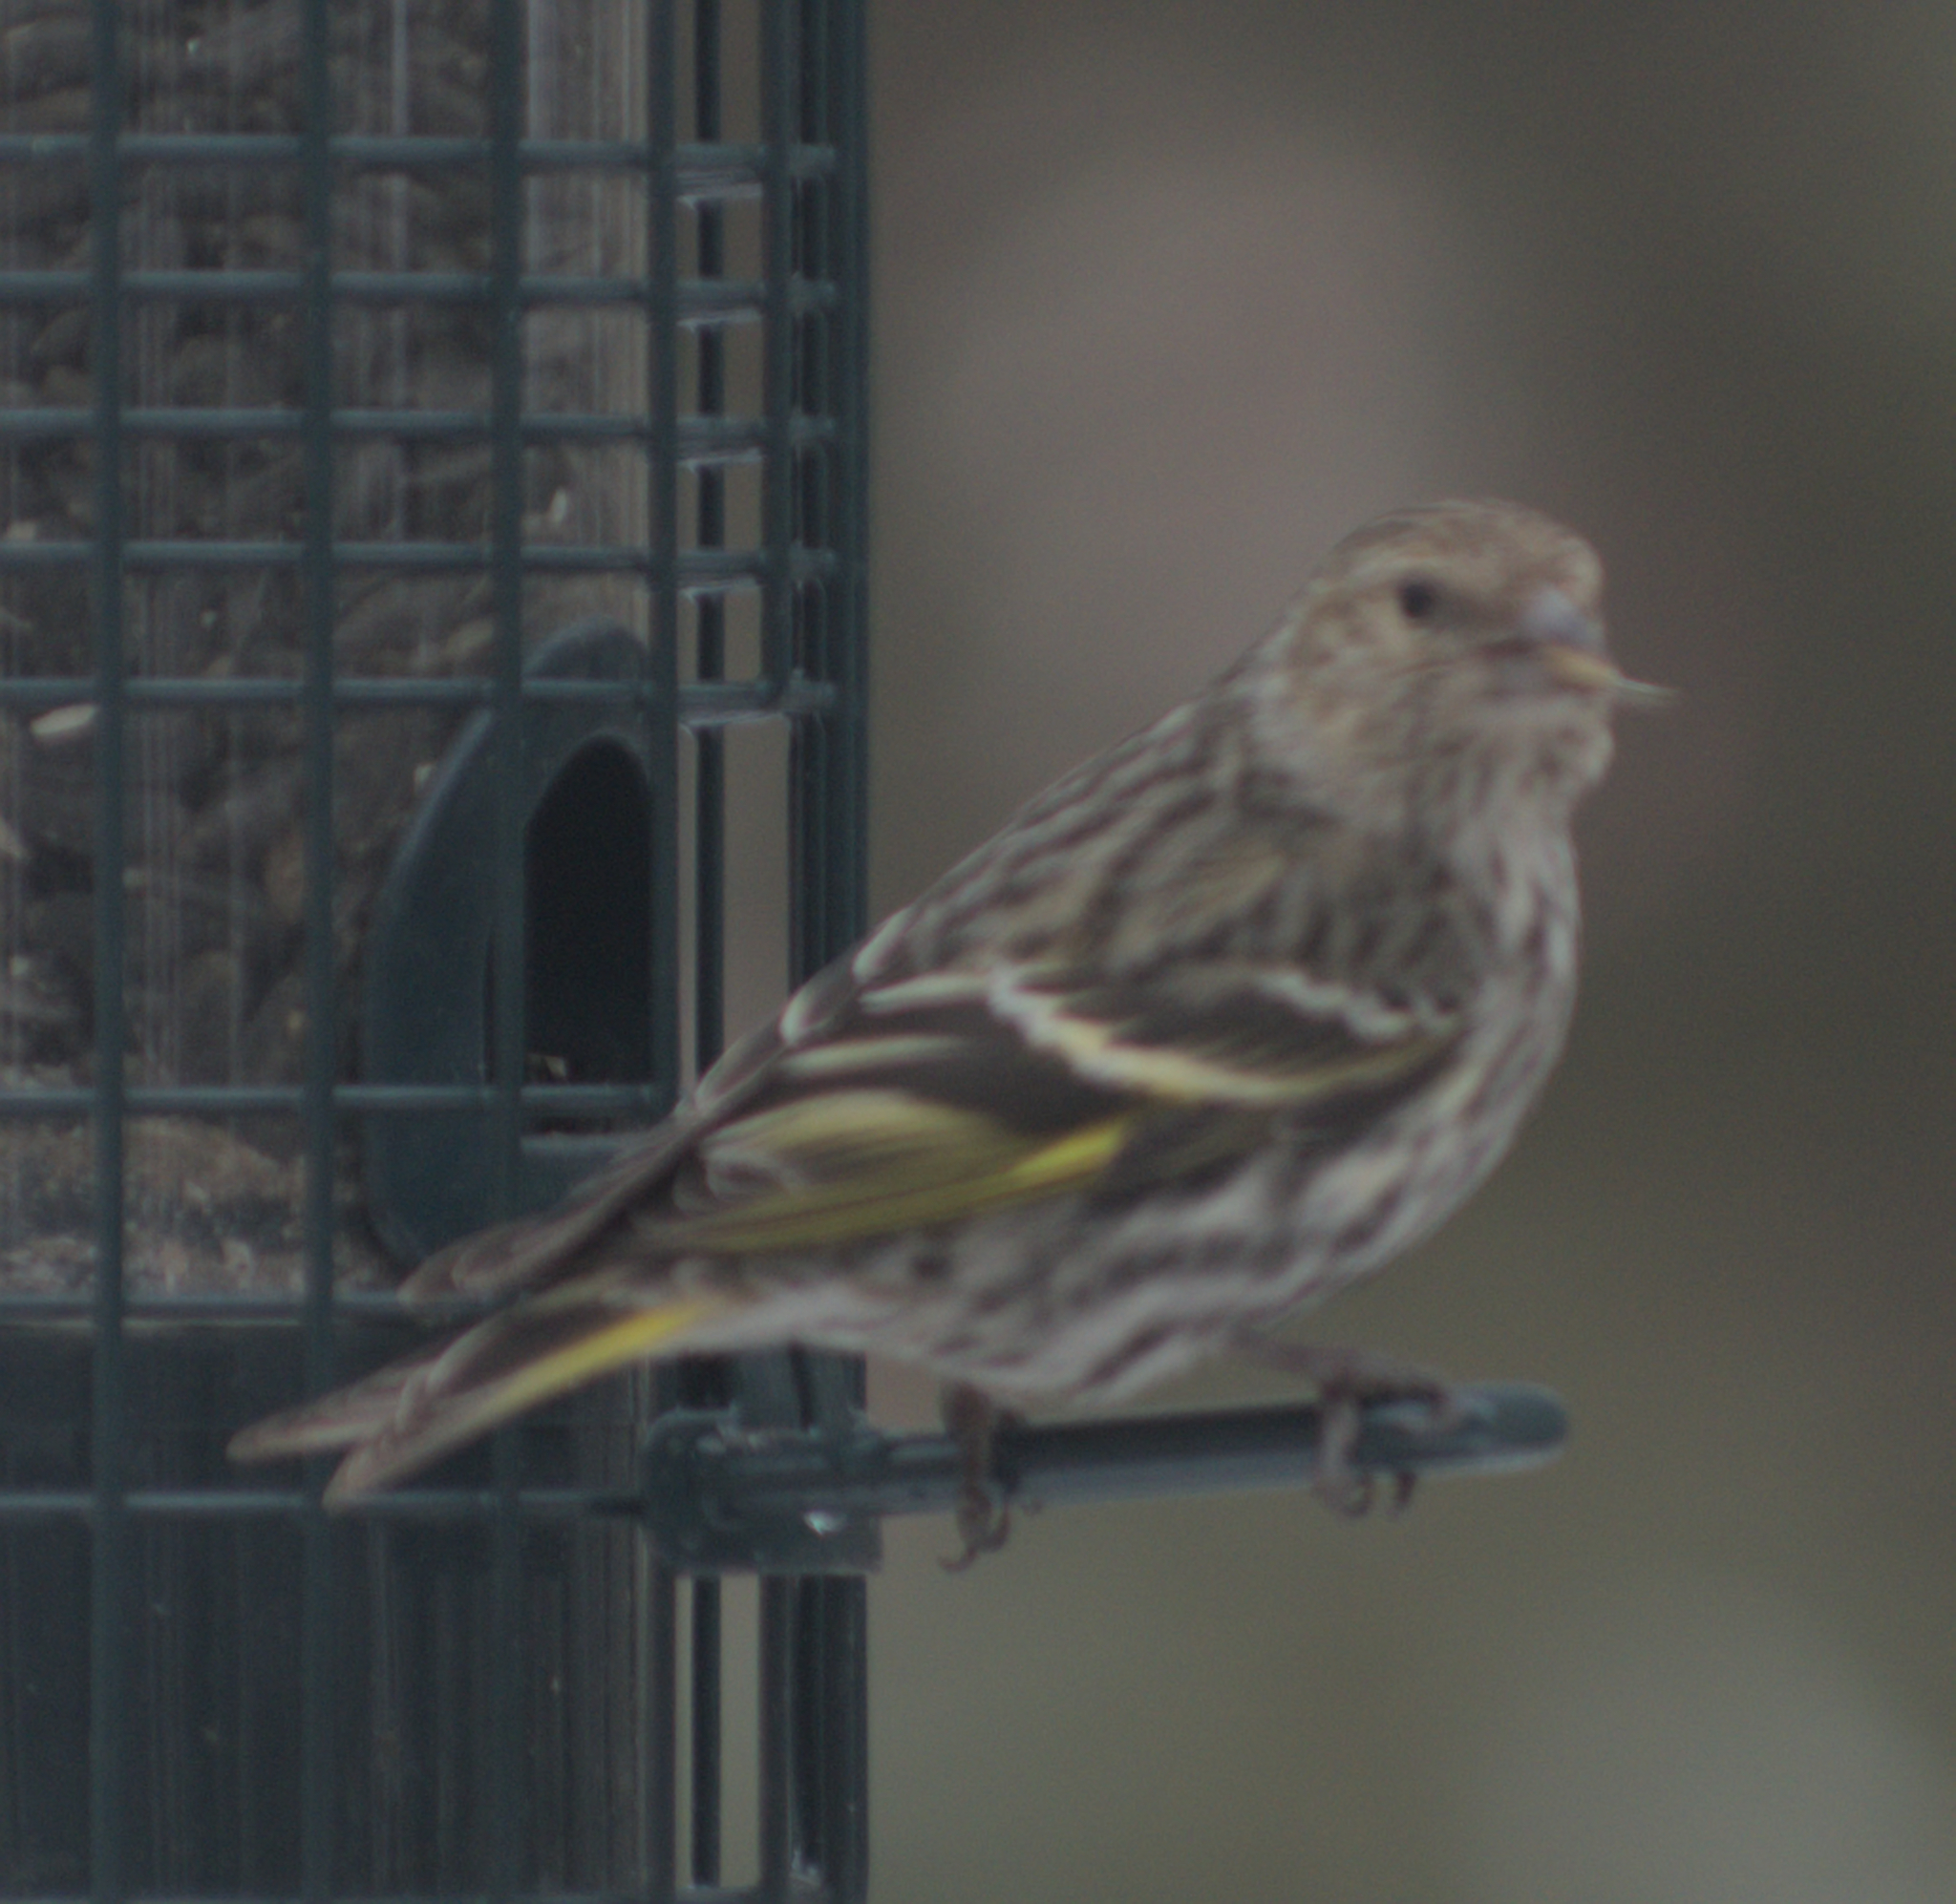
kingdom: Animalia
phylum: Chordata
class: Aves
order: Passeriformes
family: Fringillidae
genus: Spinus
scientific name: Spinus pinus
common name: Pine siskin
